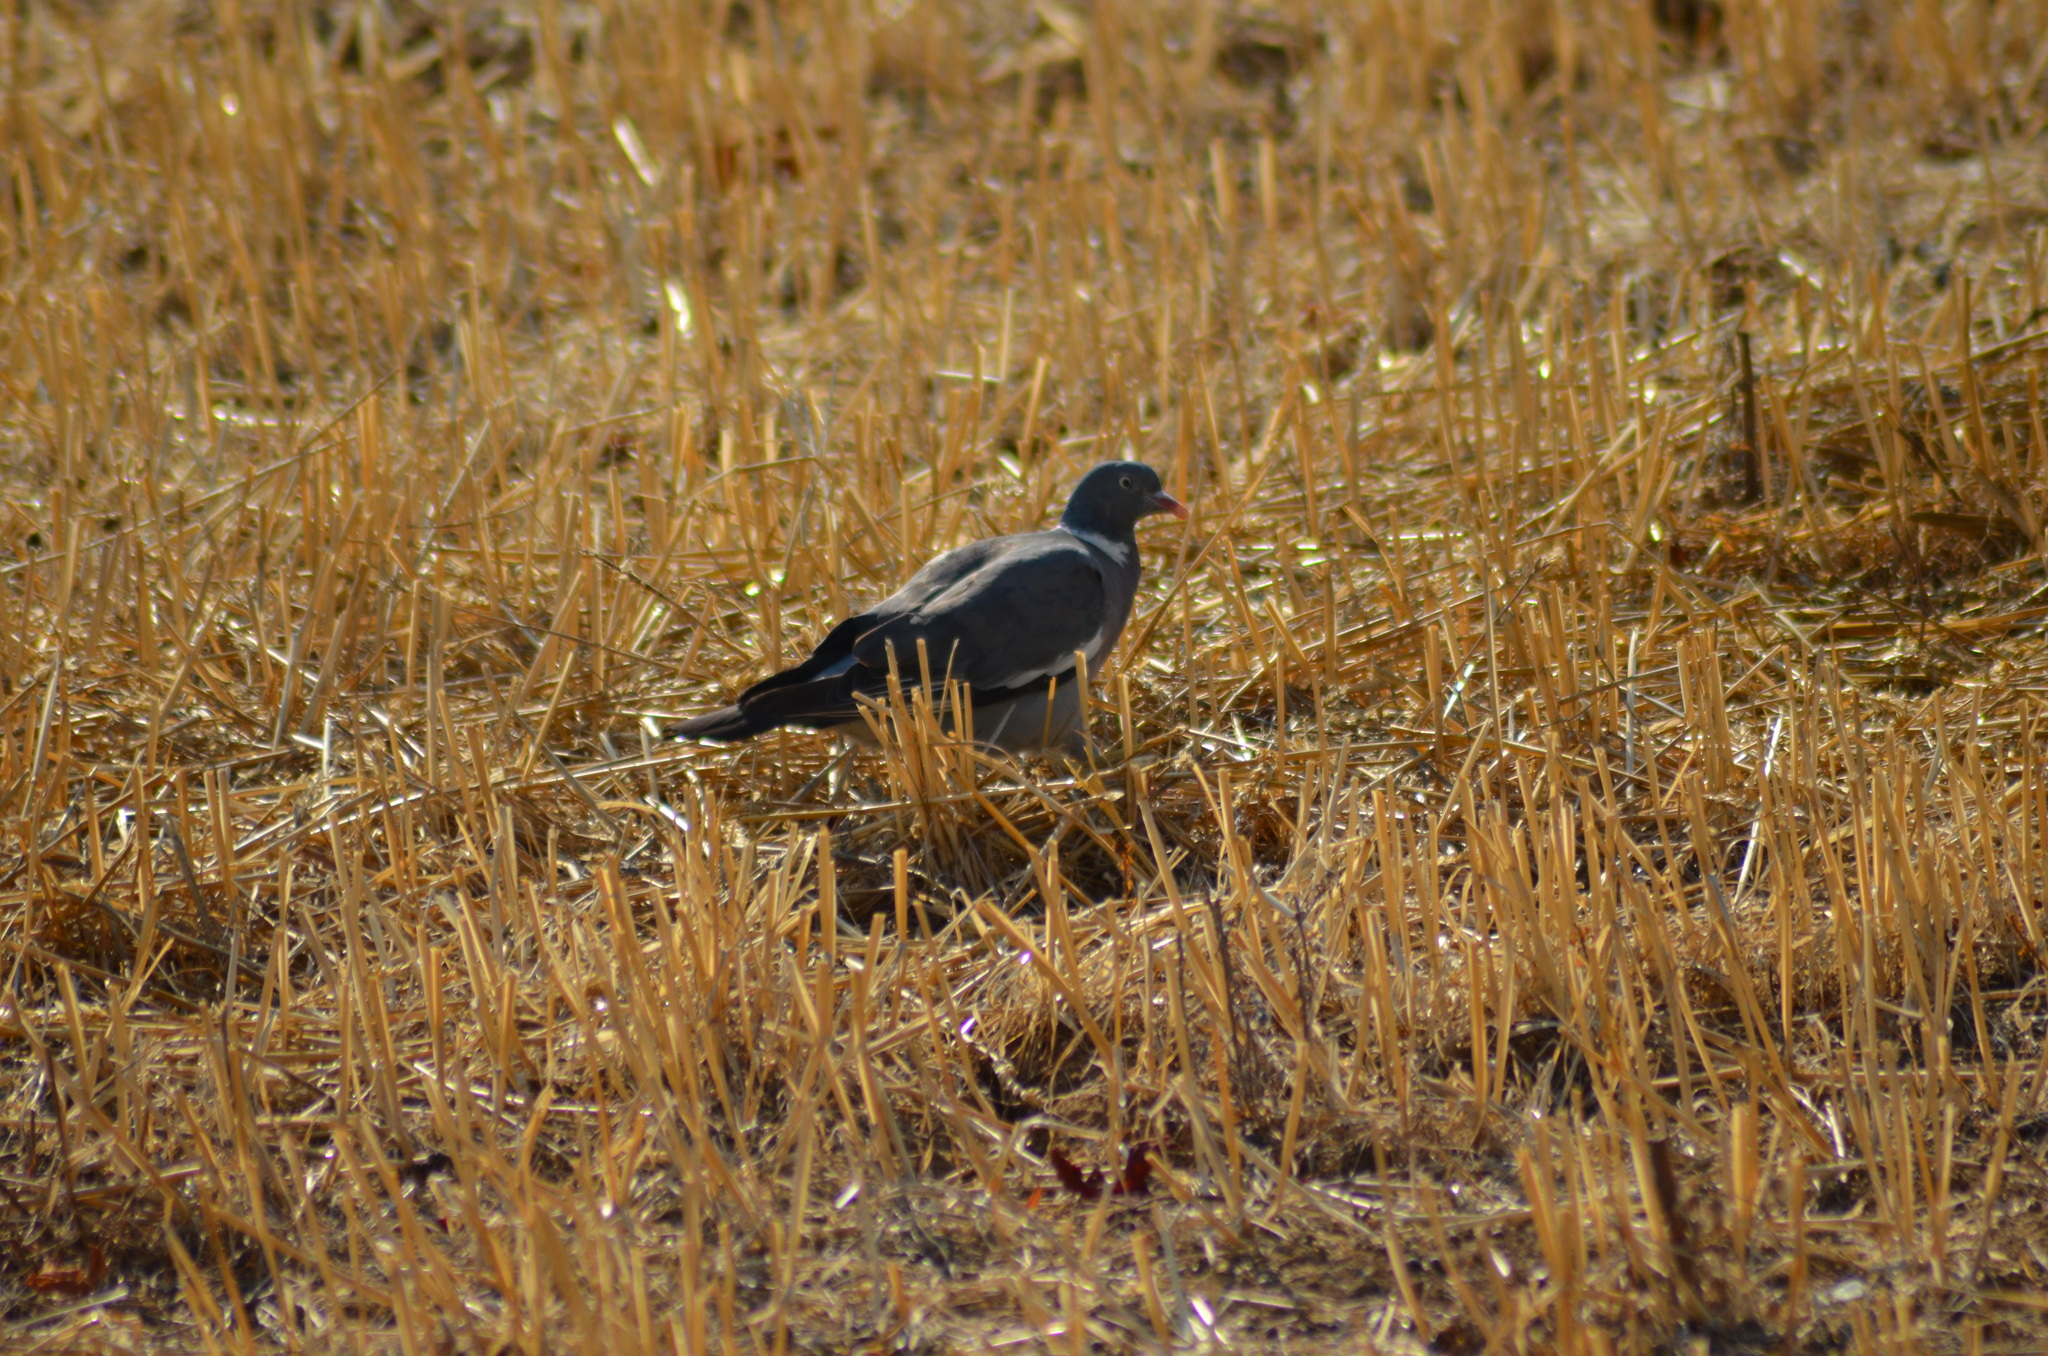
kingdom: Animalia
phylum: Chordata
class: Aves
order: Columbiformes
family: Columbidae
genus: Columba
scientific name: Columba palumbus
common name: Common wood pigeon
